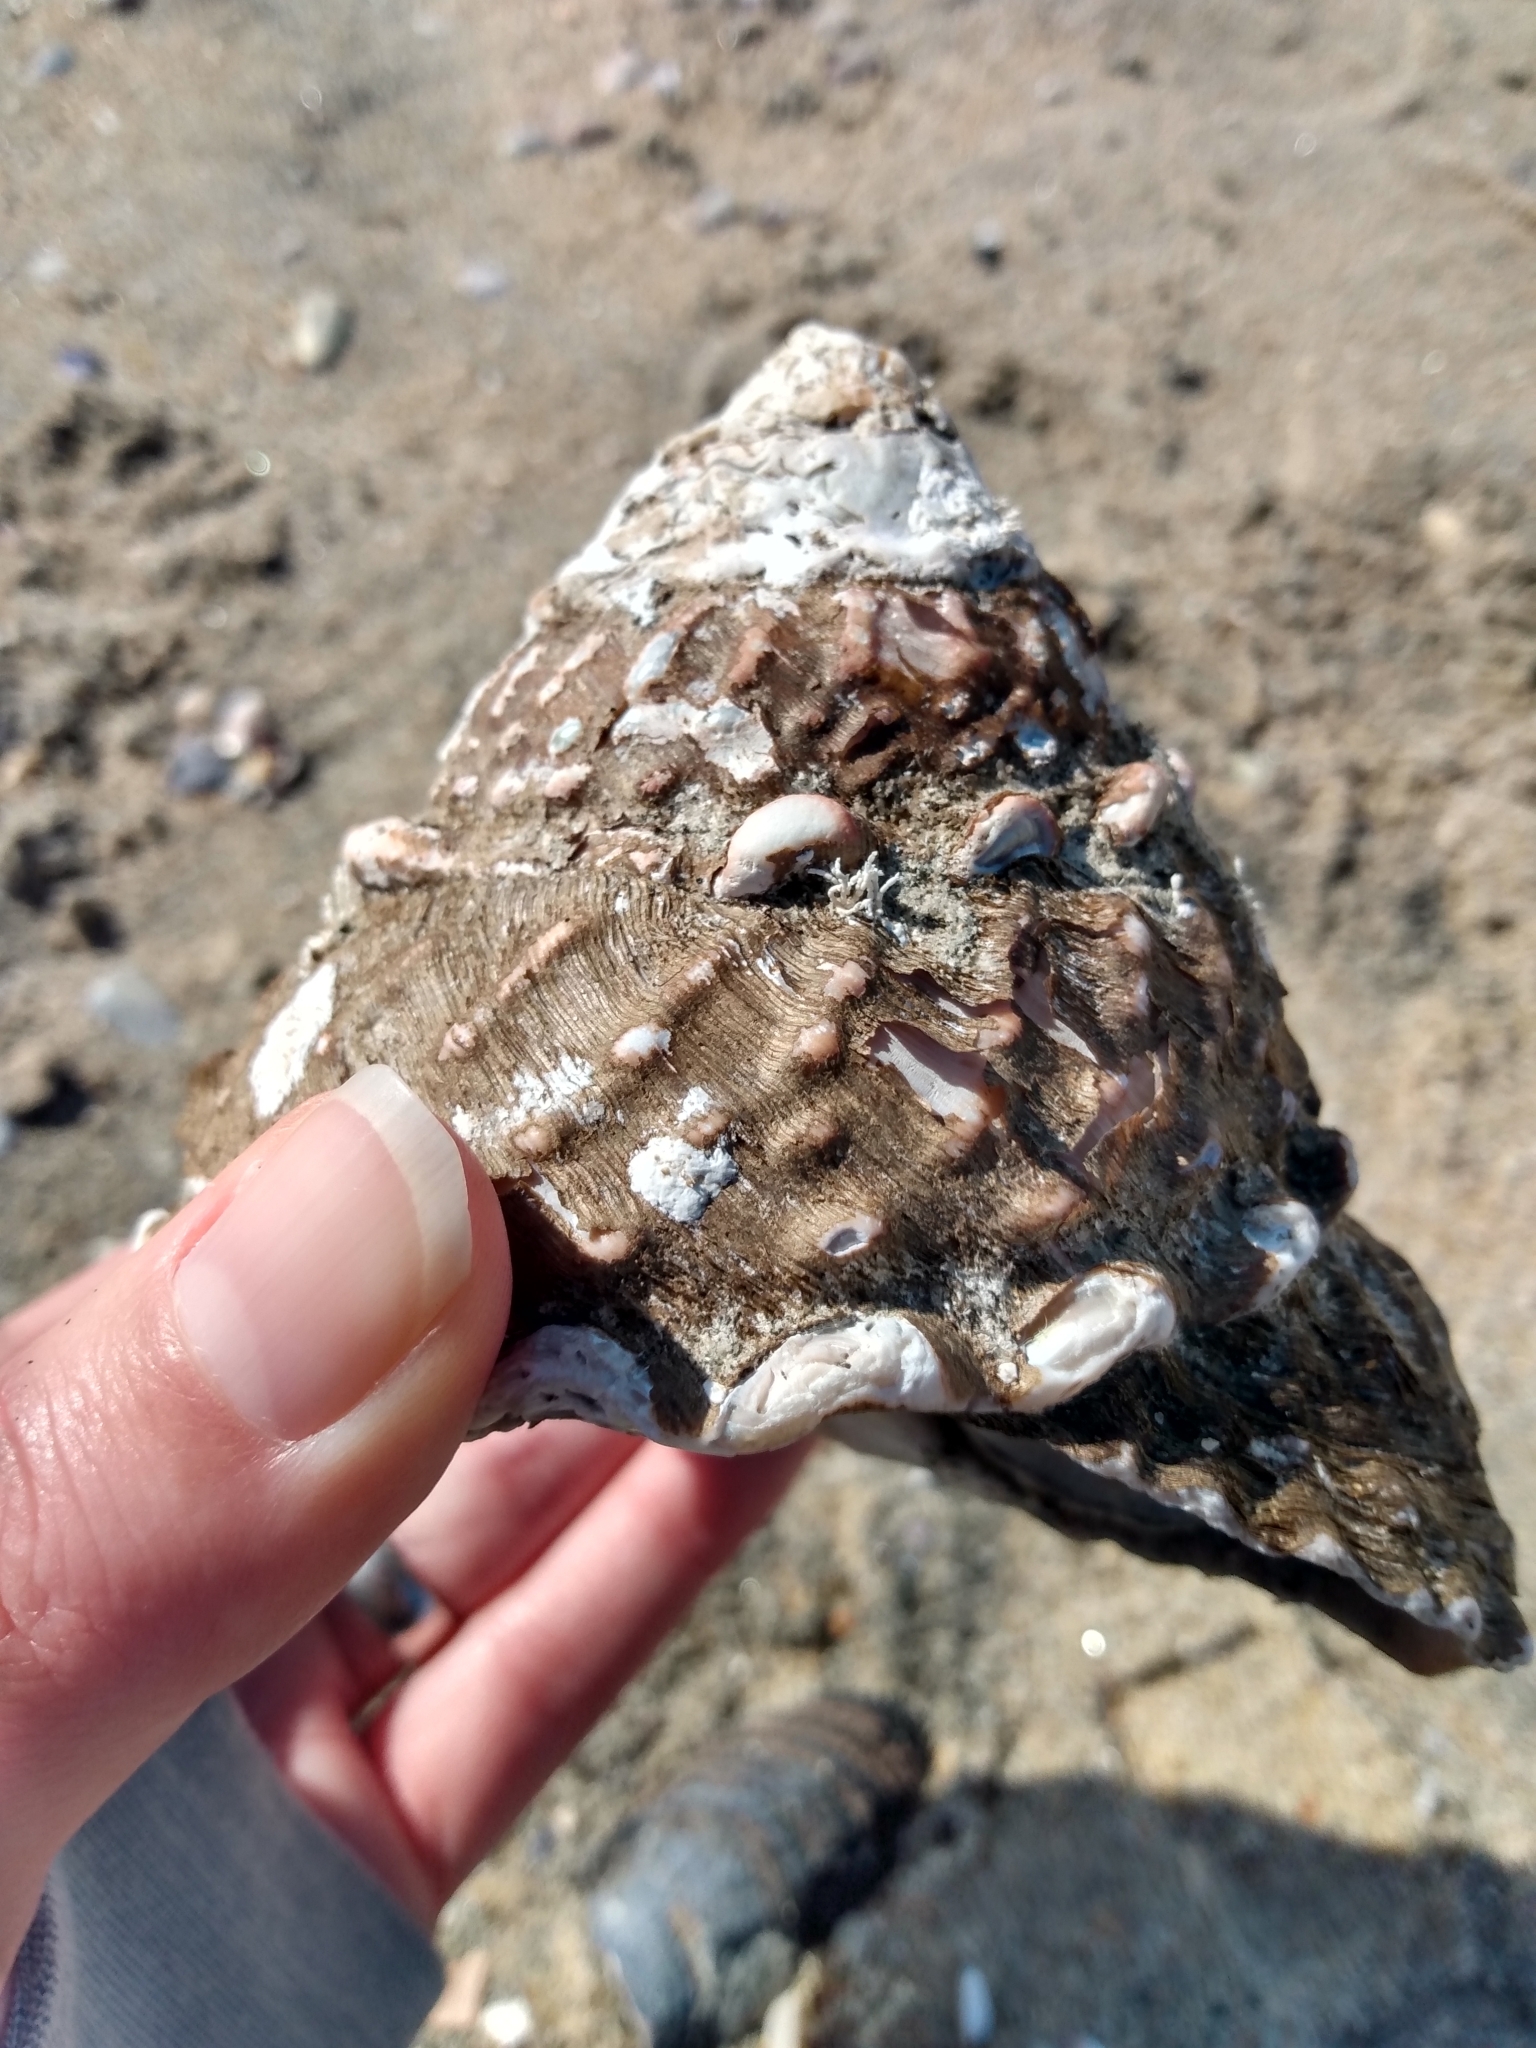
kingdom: Animalia
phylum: Mollusca
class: Gastropoda
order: Trochida
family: Turbinidae
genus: Megastraea
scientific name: Megastraea undosa
